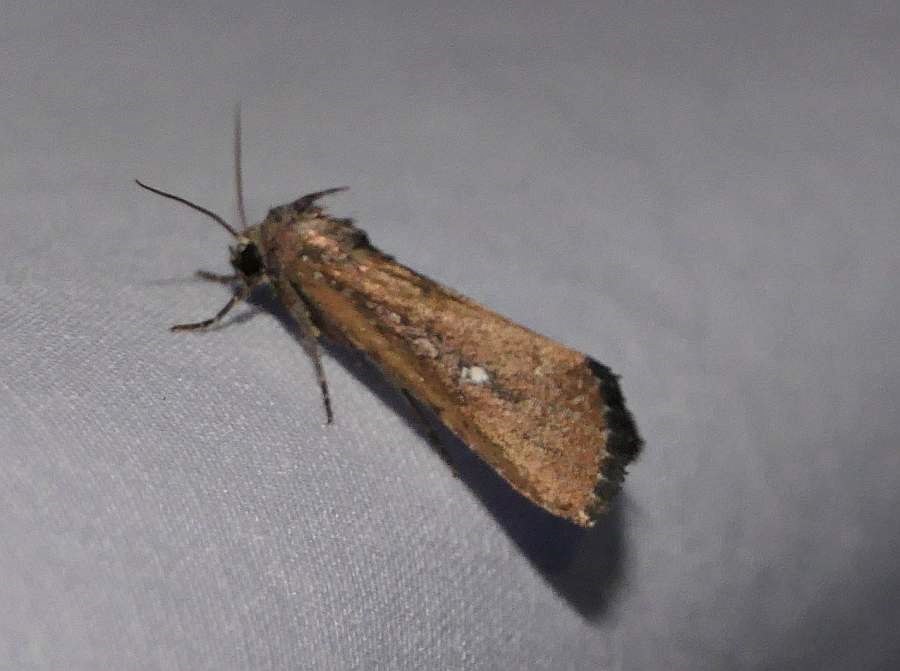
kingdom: Animalia
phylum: Arthropoda
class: Insecta
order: Lepidoptera
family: Noctuidae
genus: Condica
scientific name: Condica videns
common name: White-dotted groundling
